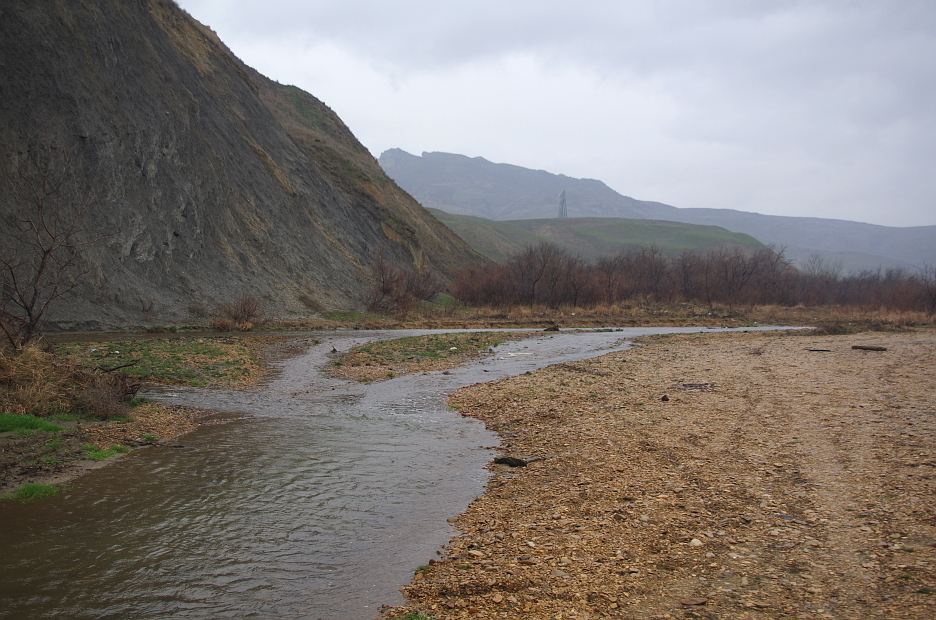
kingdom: Animalia
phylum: Chordata
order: Cypriniformes
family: Cyprinidae
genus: Alburnus
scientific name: Alburnus hohenackeri
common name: Transcaucasian bleak
